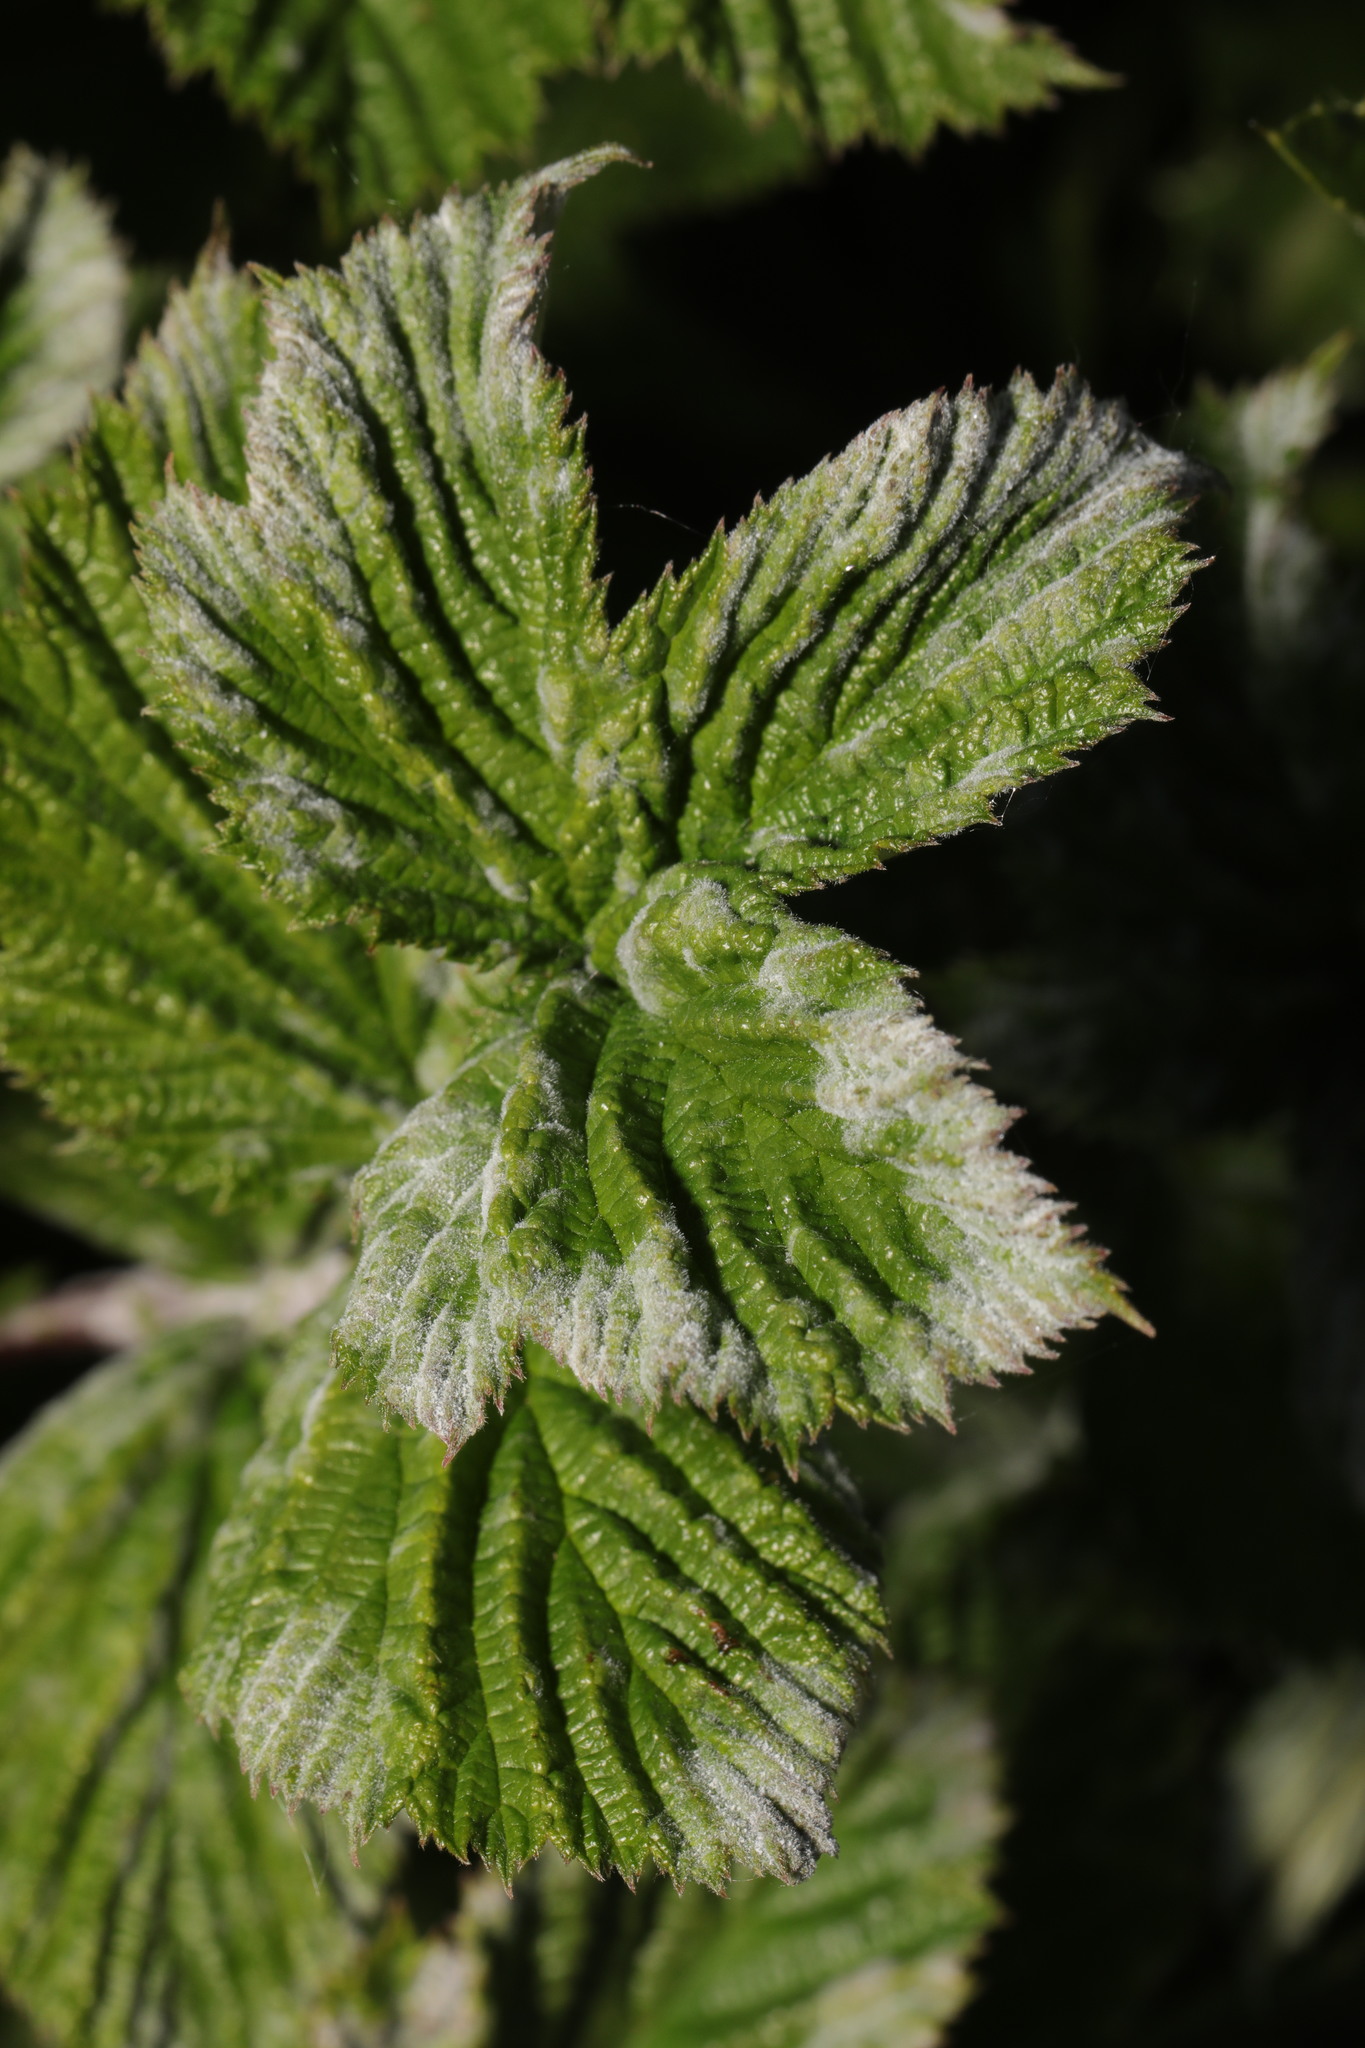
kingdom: Fungi
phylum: Ascomycota
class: Leotiomycetes
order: Helotiales
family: Erysiphaceae
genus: Podosphaera
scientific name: Podosphaera filipendulae
